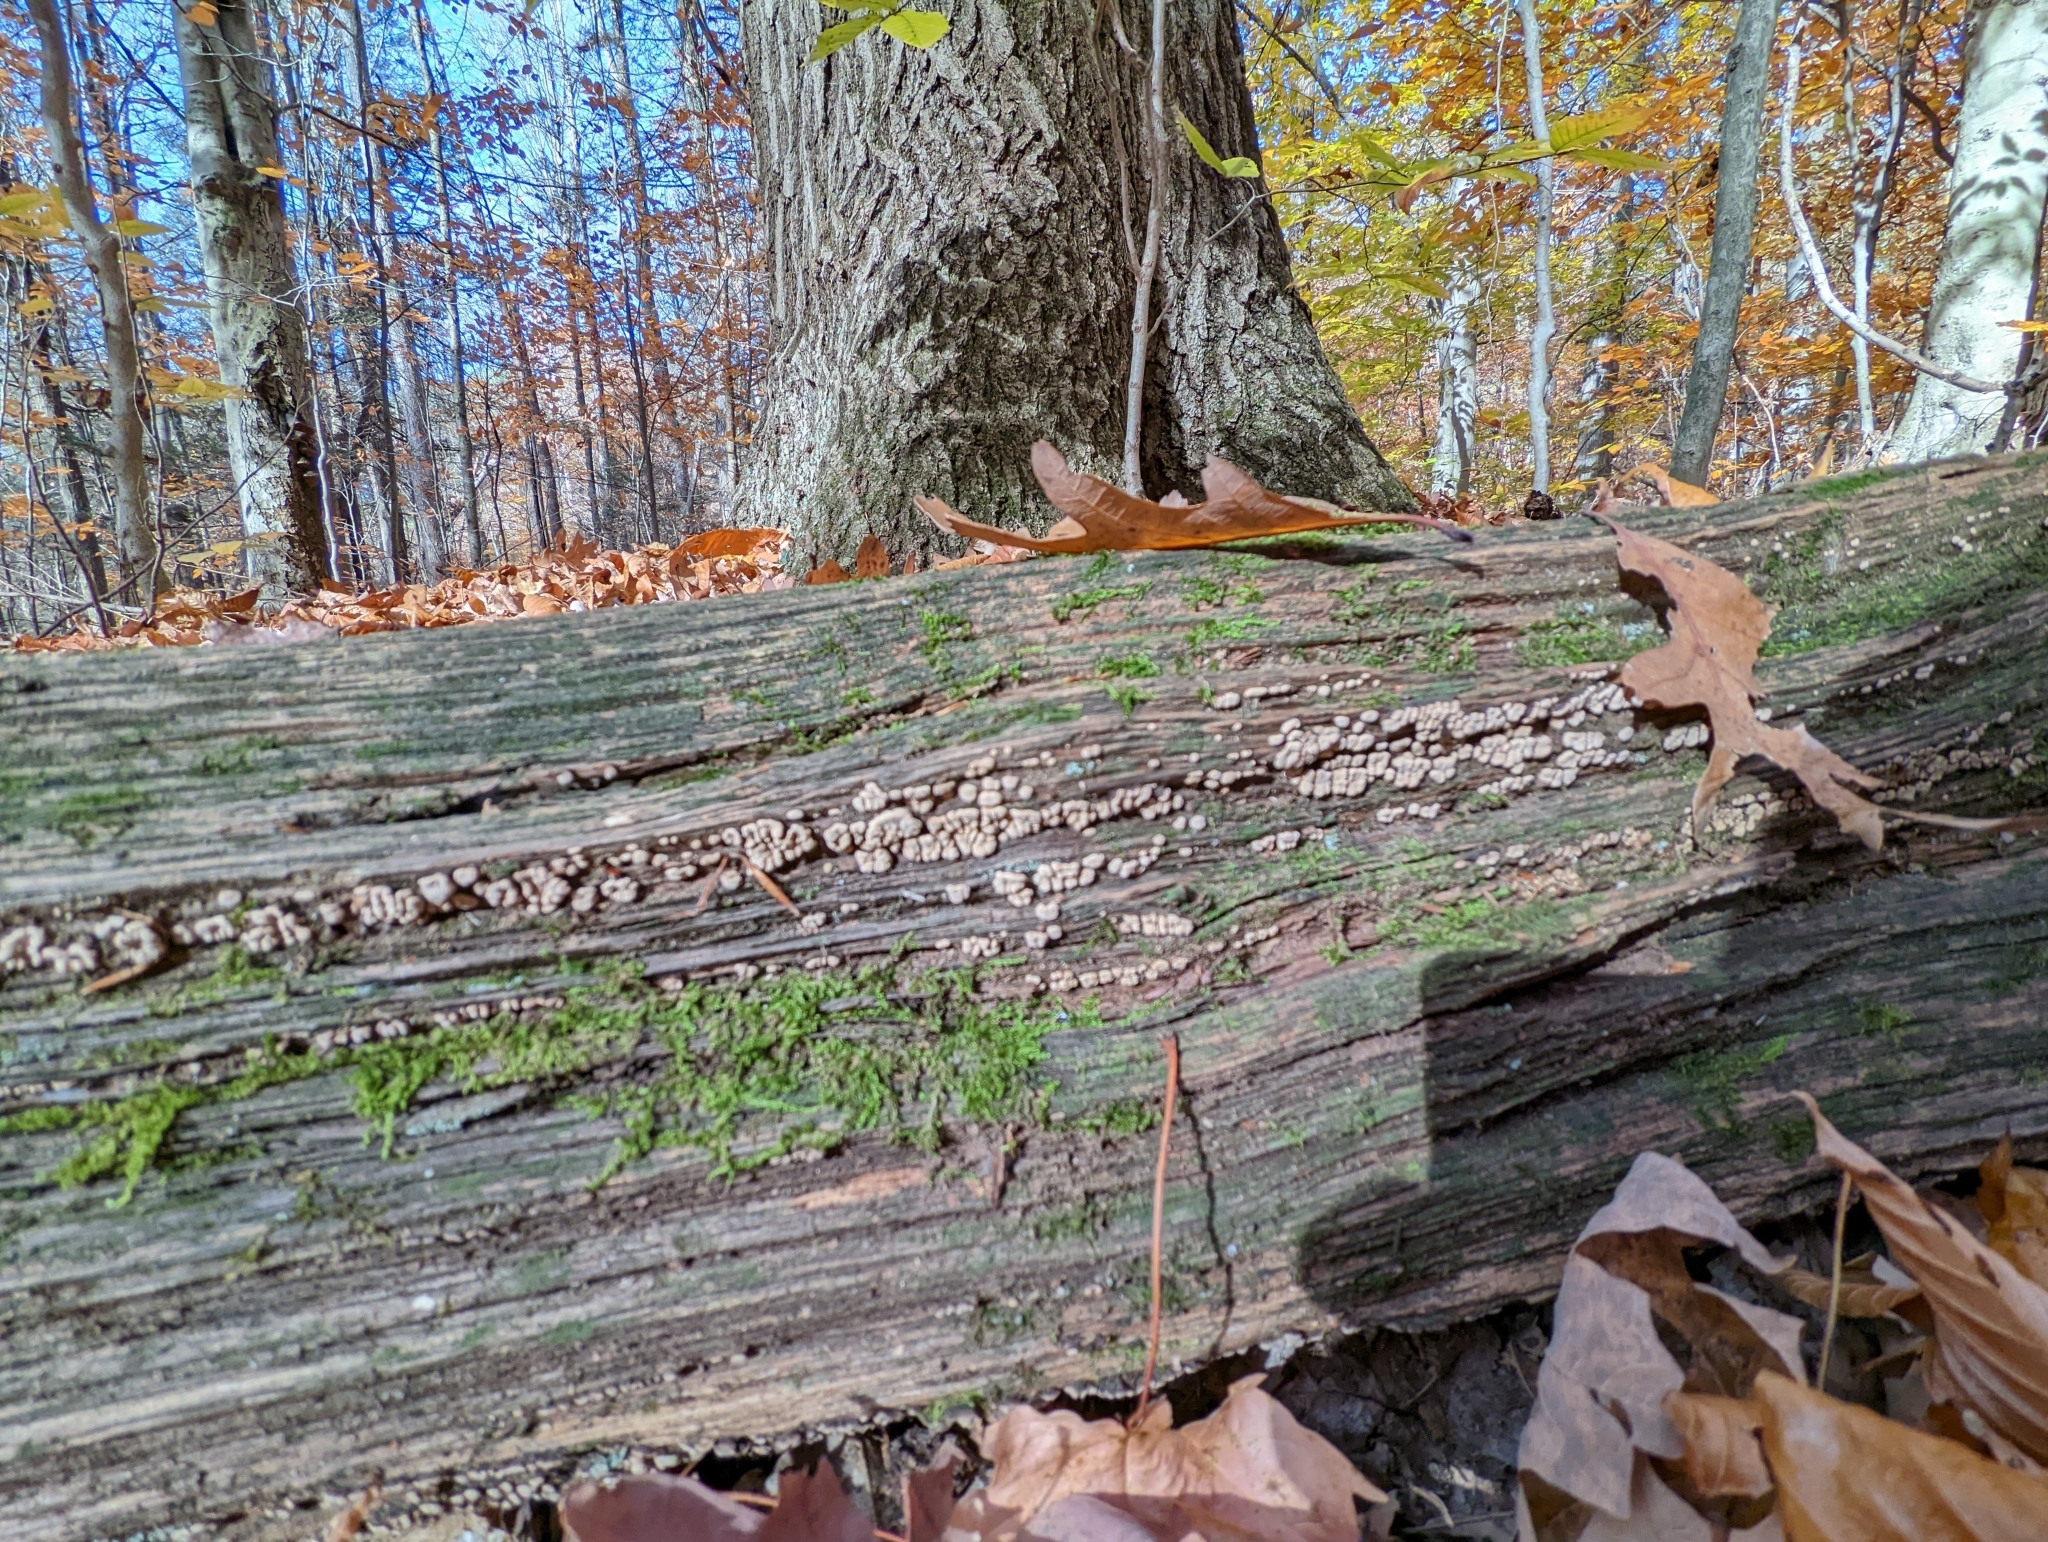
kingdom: Fungi
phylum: Basidiomycota
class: Agaricomycetes
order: Russulales
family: Stereaceae
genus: Xylobolus
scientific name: Xylobolus frustulatus
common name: Ceramic parchment
